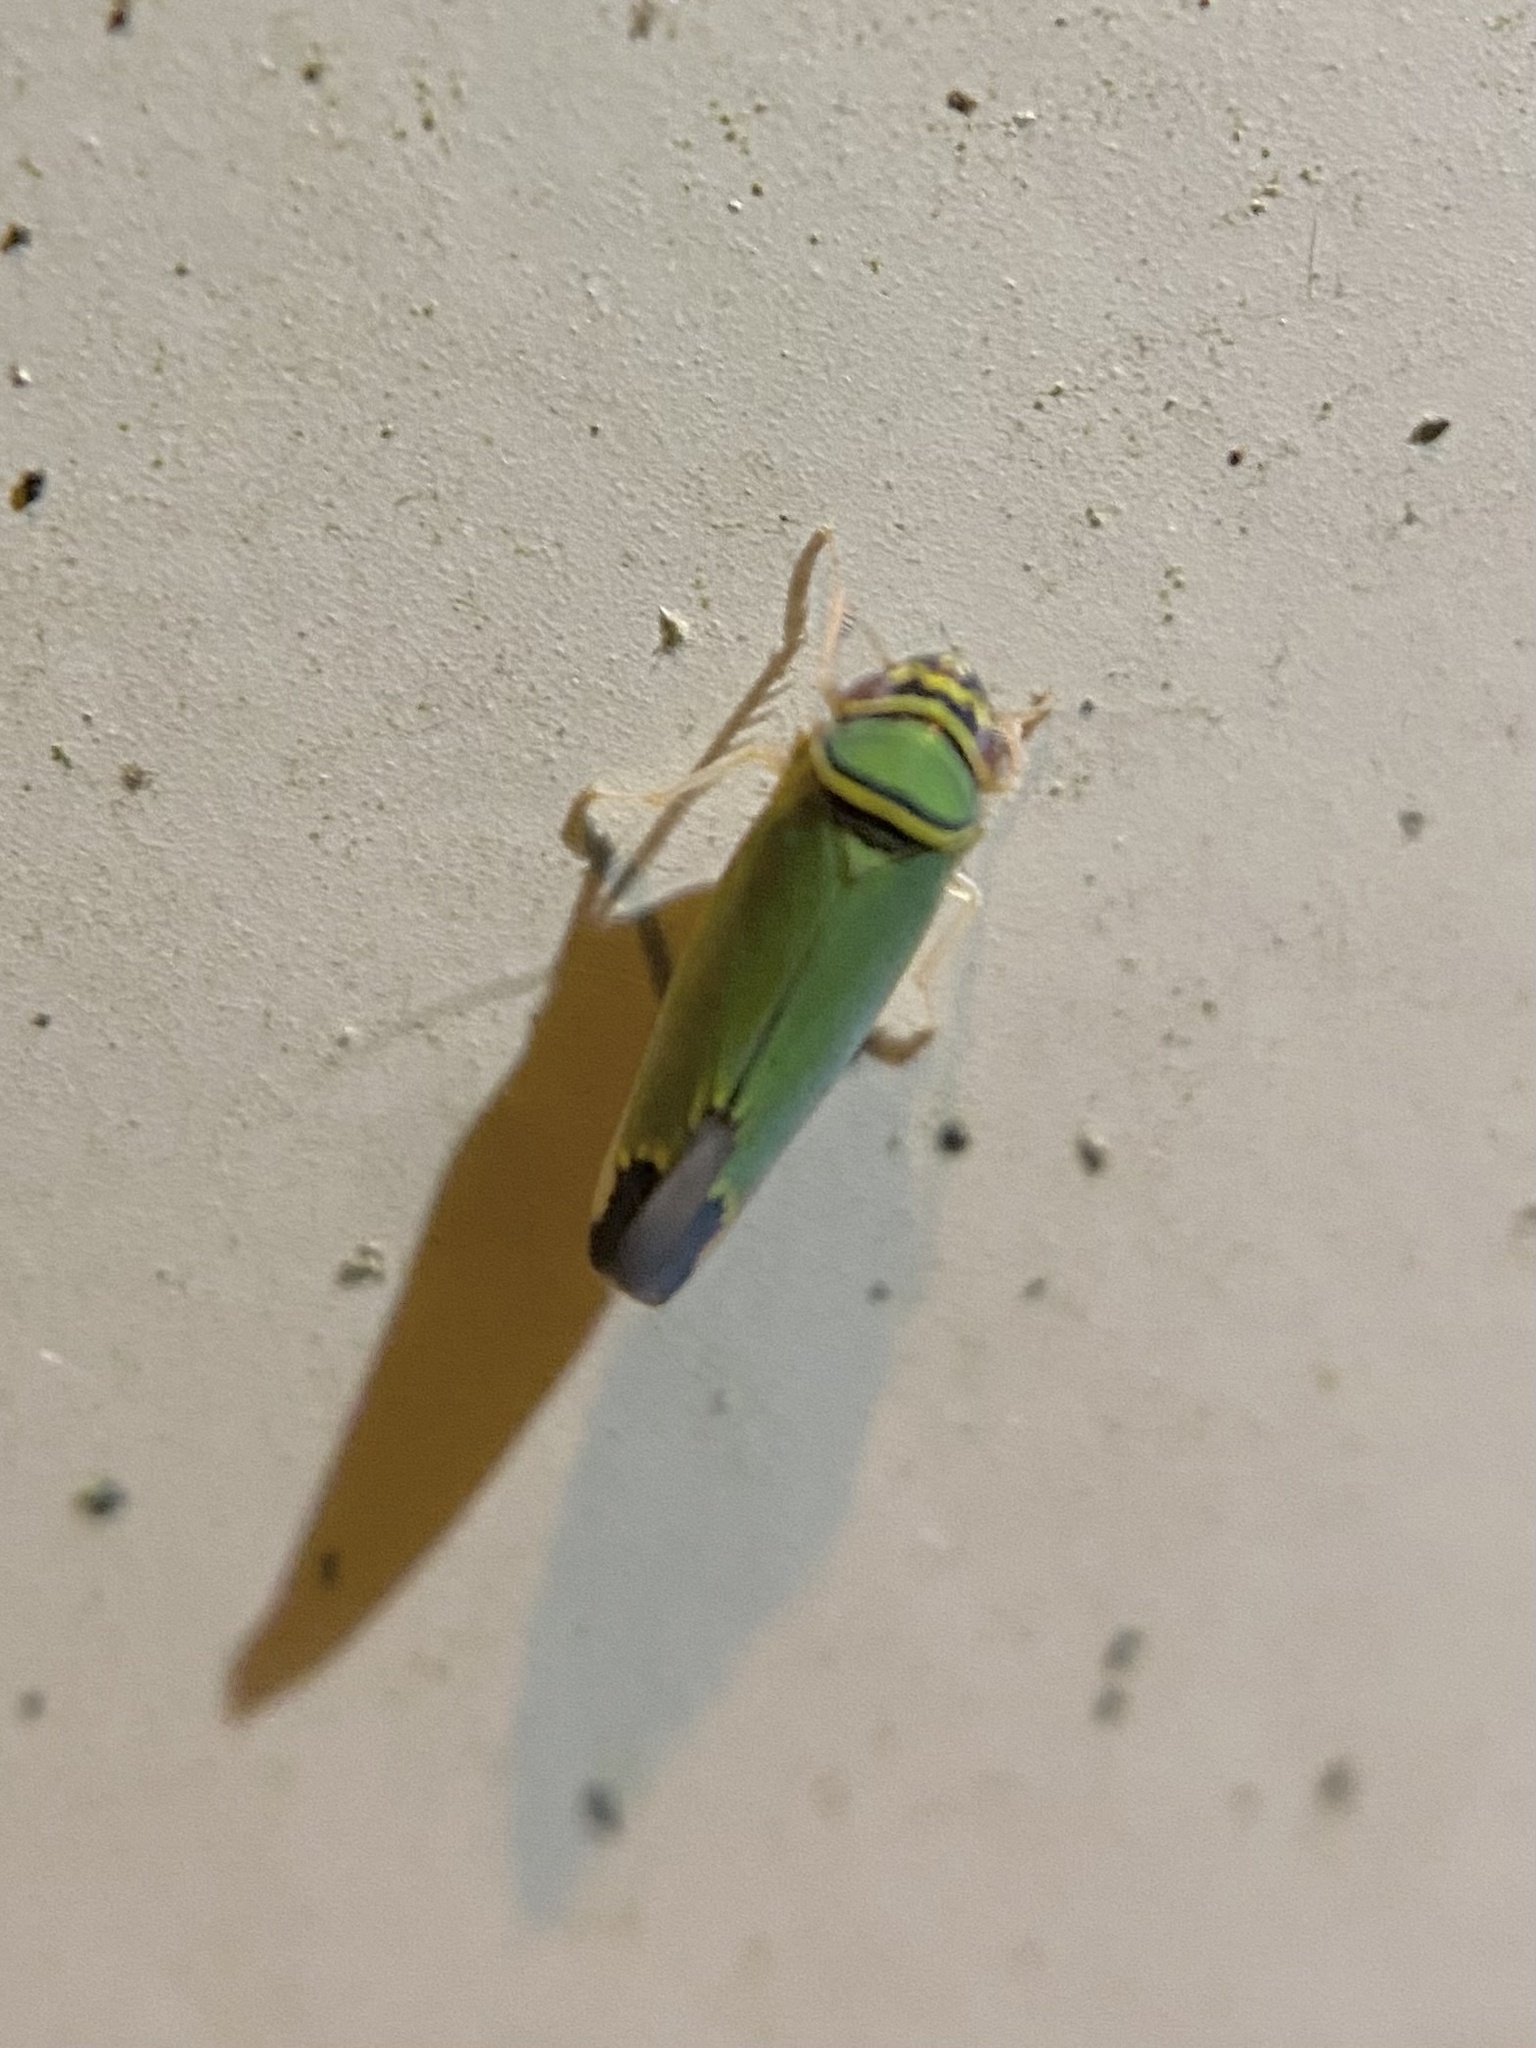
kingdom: Animalia
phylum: Arthropoda
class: Insecta
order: Hemiptera
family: Cicadellidae
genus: Tylozygus
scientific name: Tylozygus geometricus
